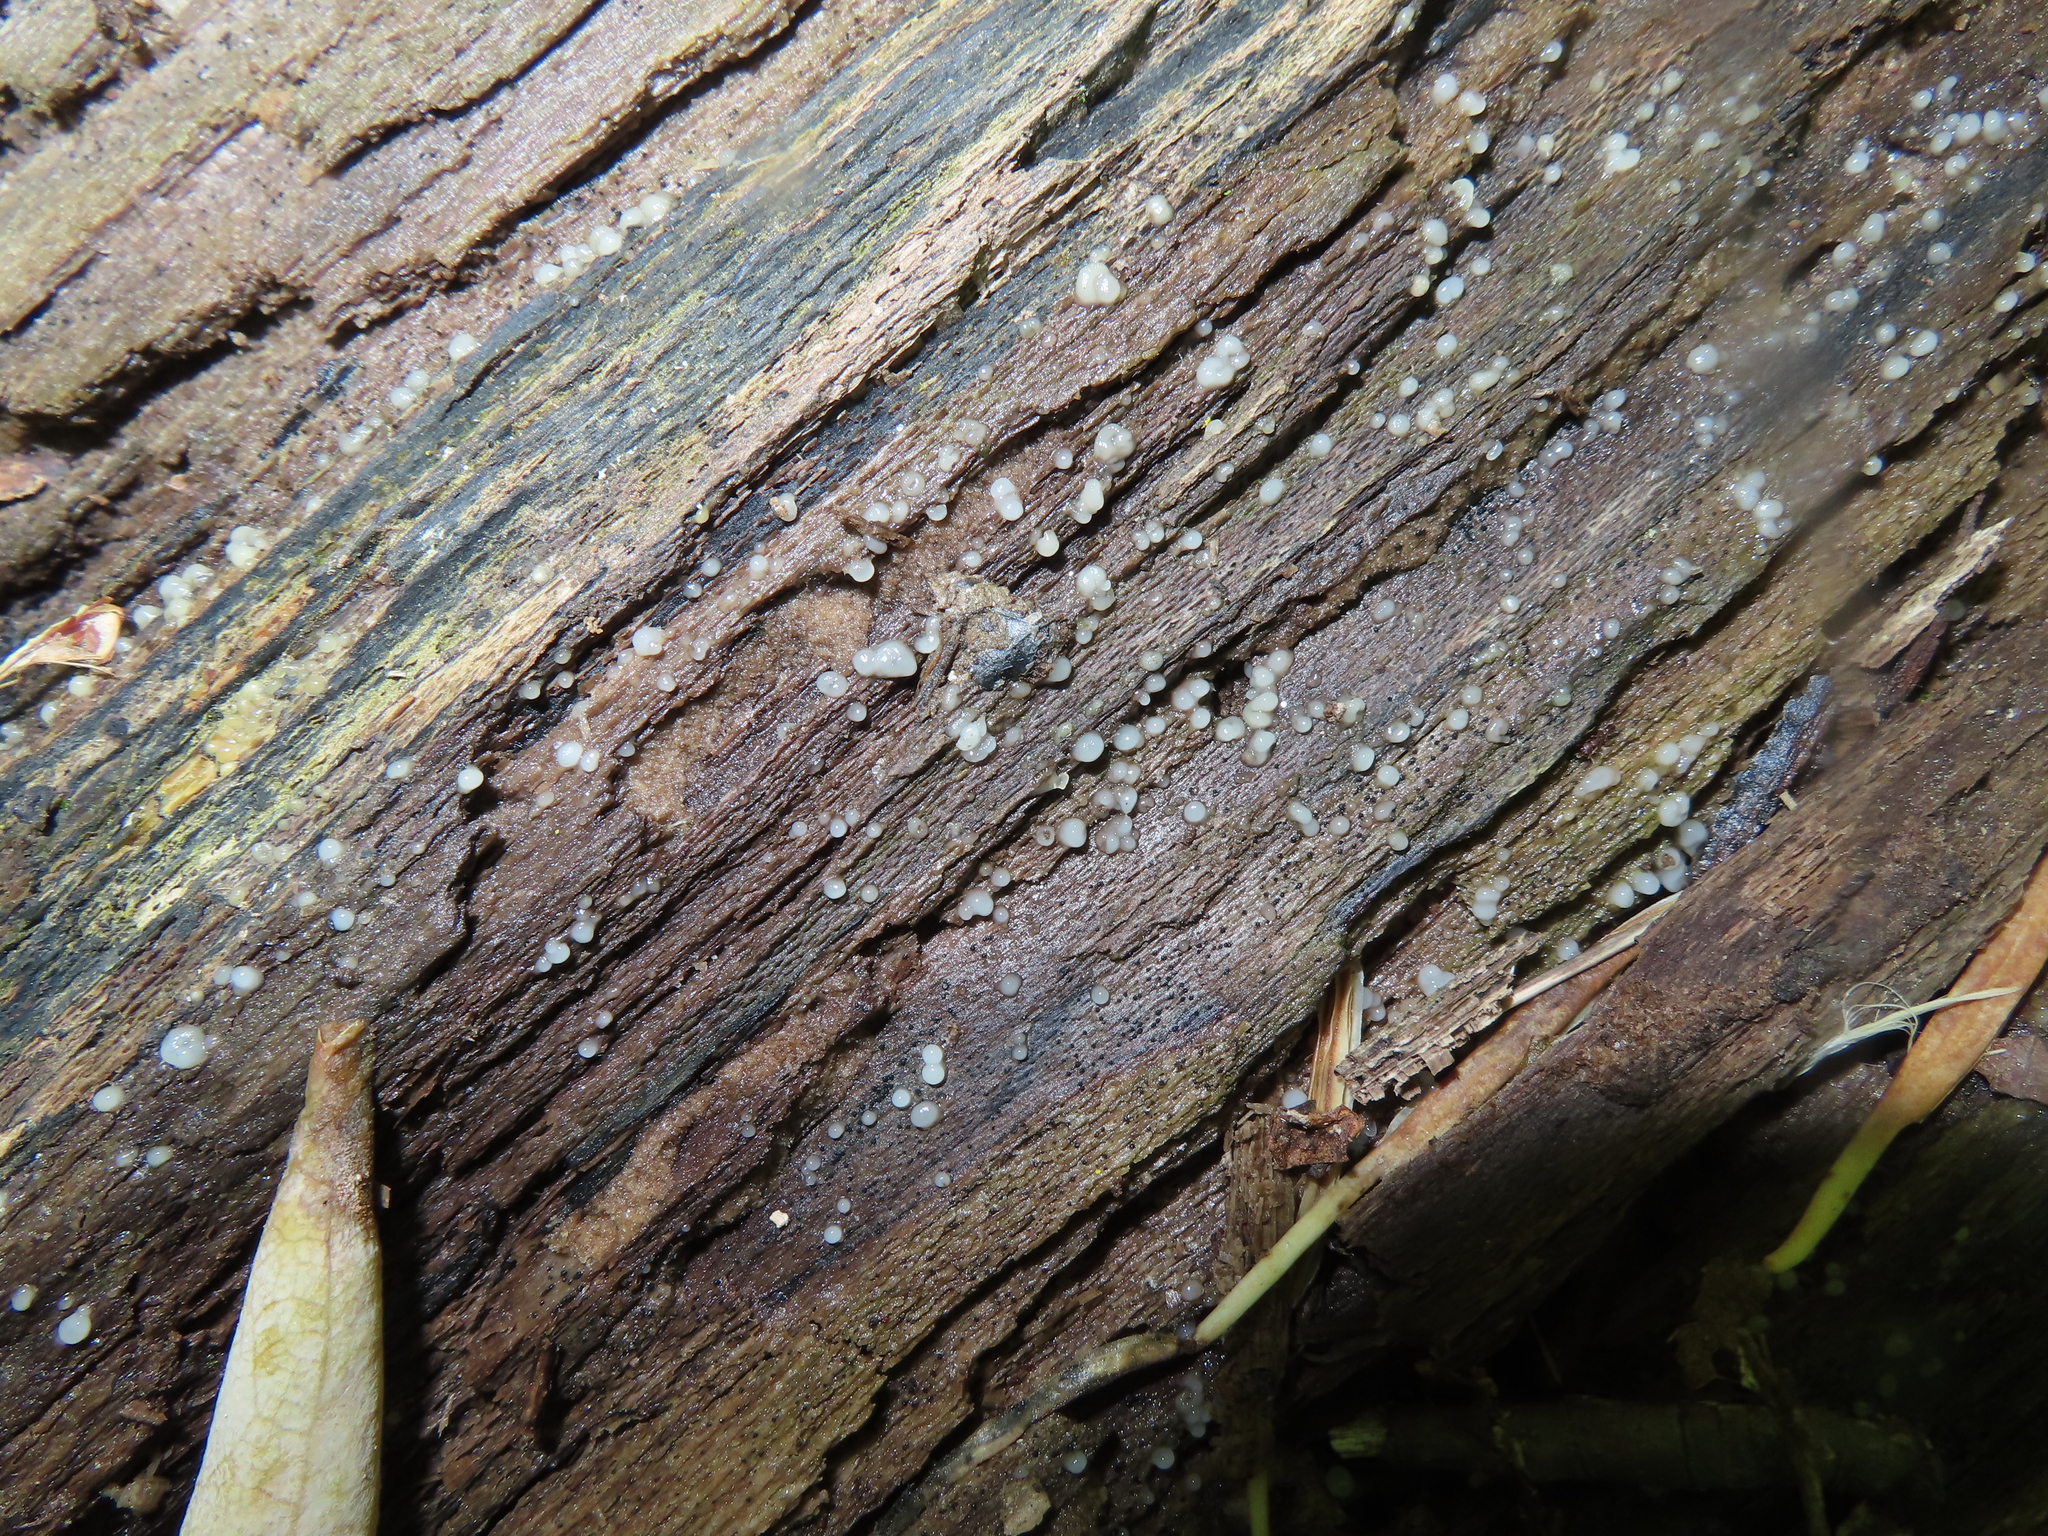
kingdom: Fungi
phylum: Basidiomycota
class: Atractiellomycetes
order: Atractiellales
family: Phleogenaceae
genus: Helicogloea
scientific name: Helicogloea compressa
